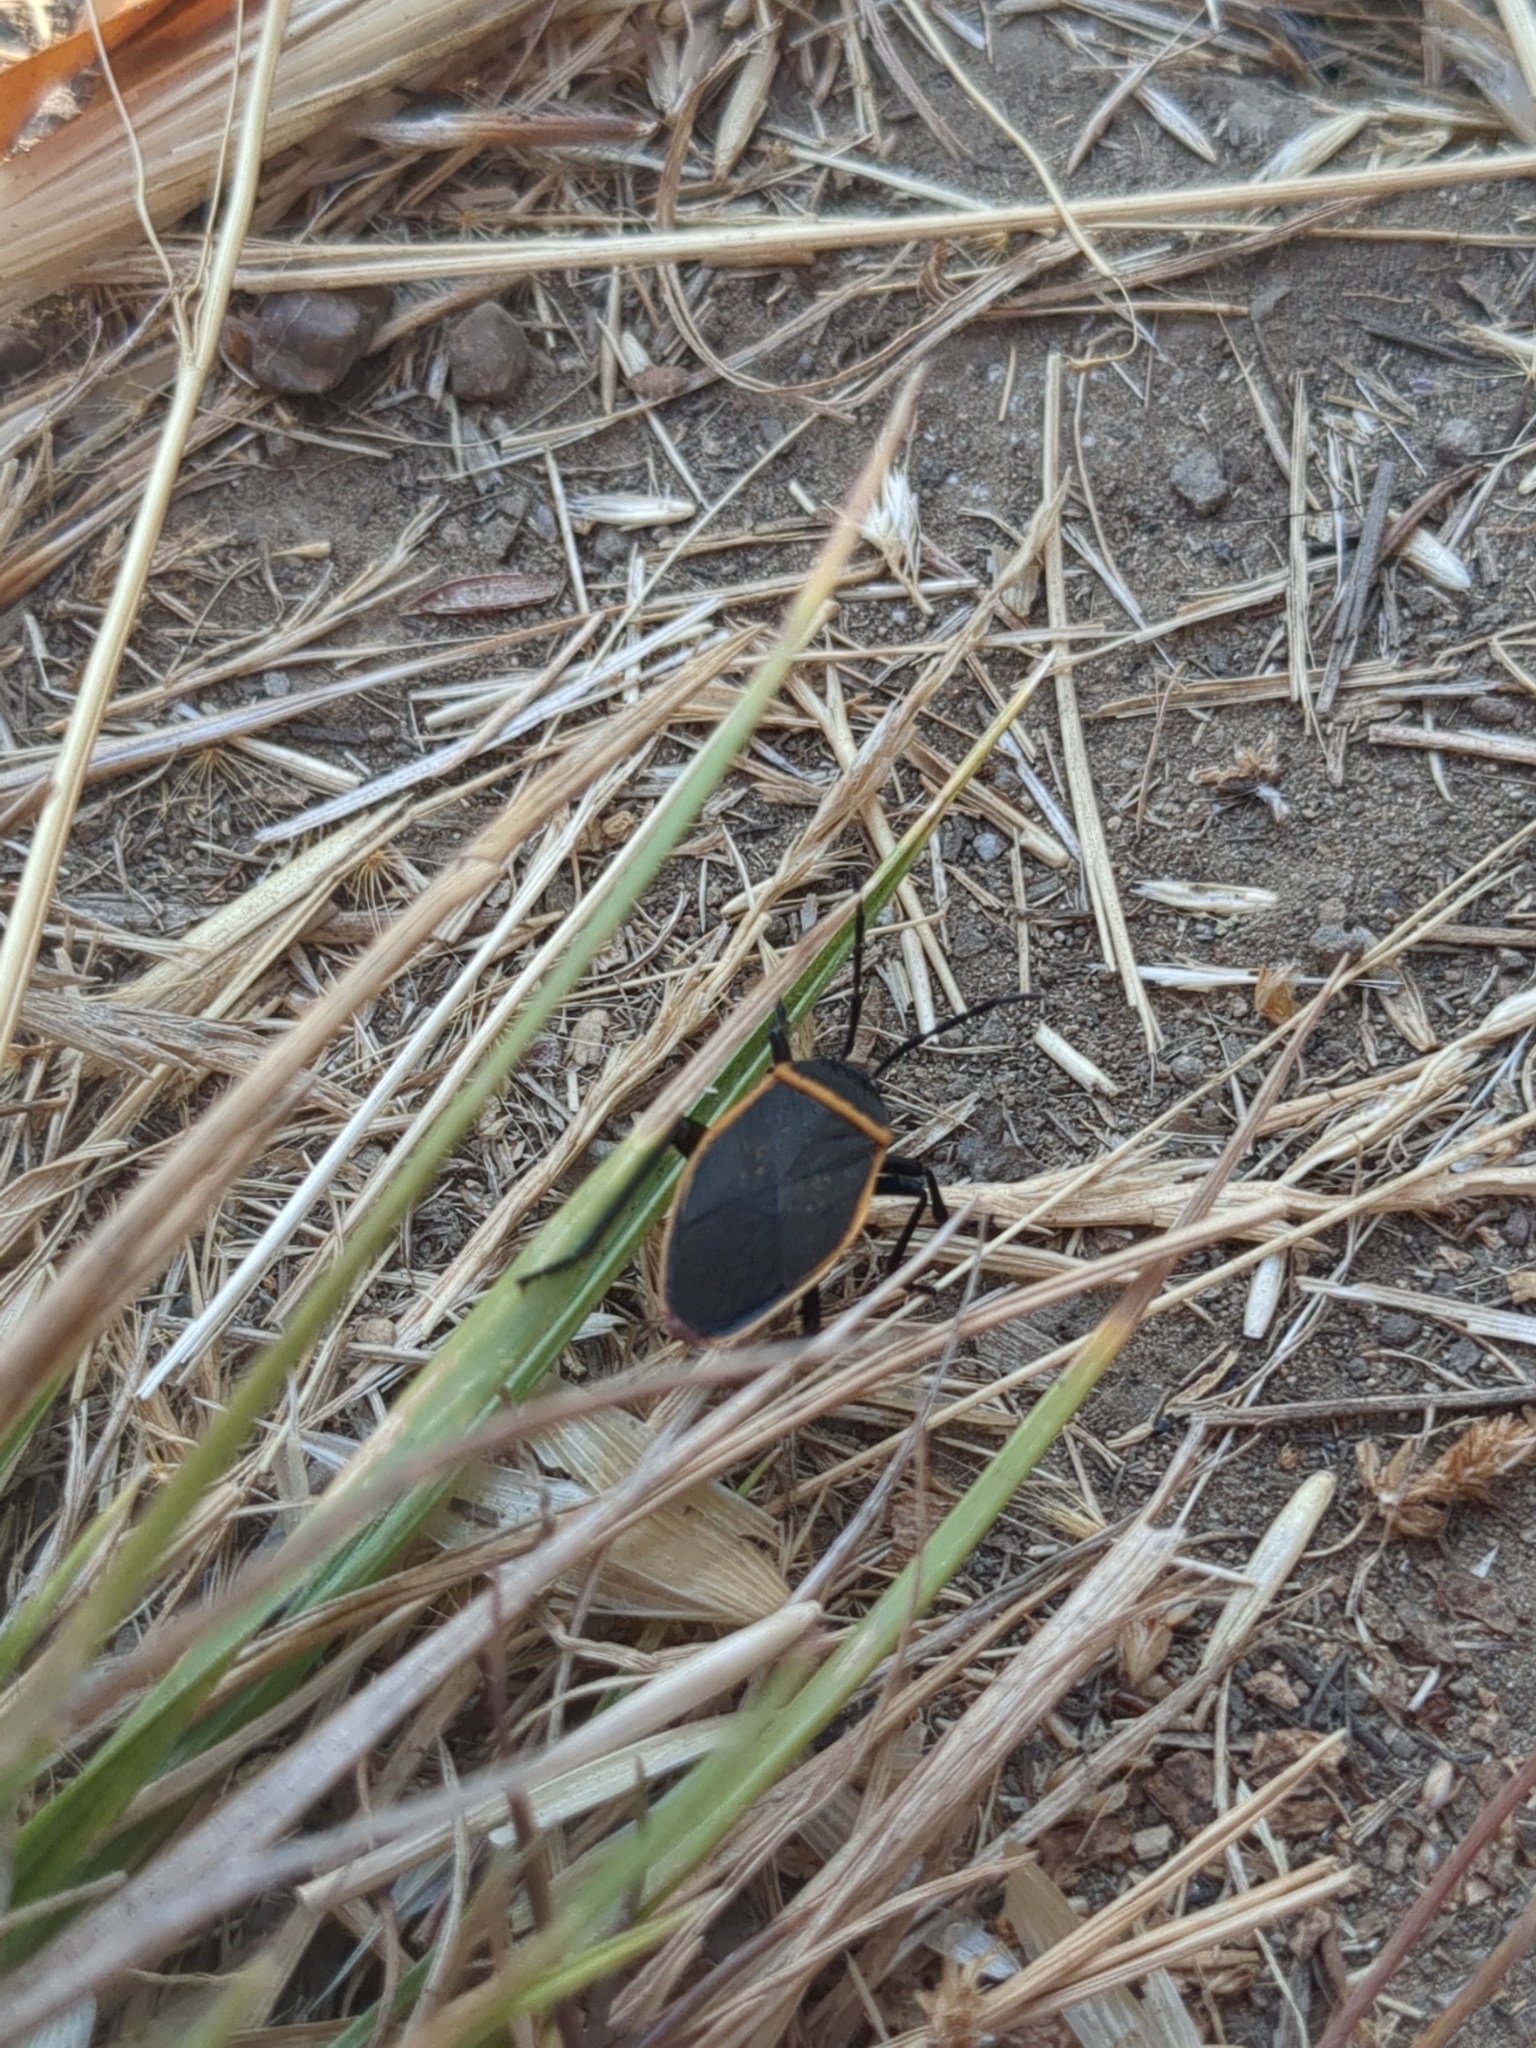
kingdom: Animalia
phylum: Arthropoda
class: Insecta
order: Hemiptera
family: Largidae
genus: Largus
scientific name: Largus californicus
